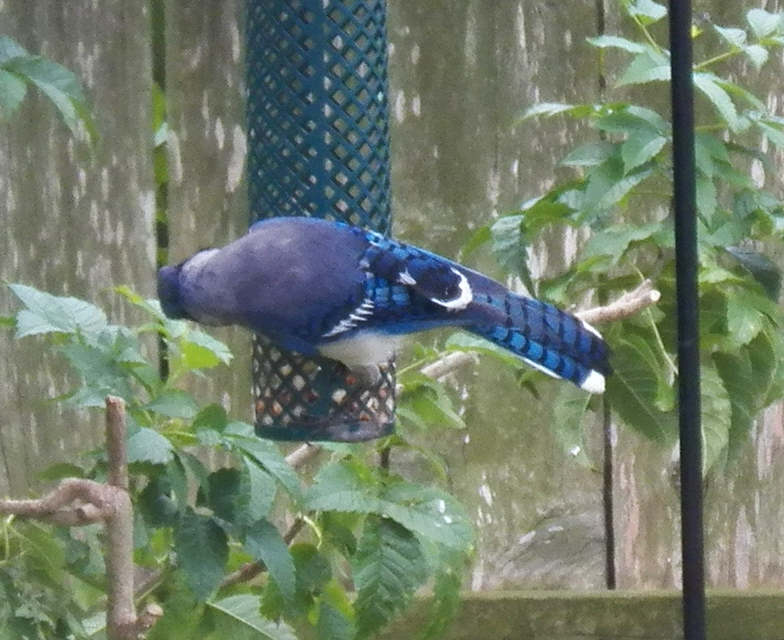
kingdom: Animalia
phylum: Chordata
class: Aves
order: Passeriformes
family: Corvidae
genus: Cyanocitta
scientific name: Cyanocitta cristata
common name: Blue jay
